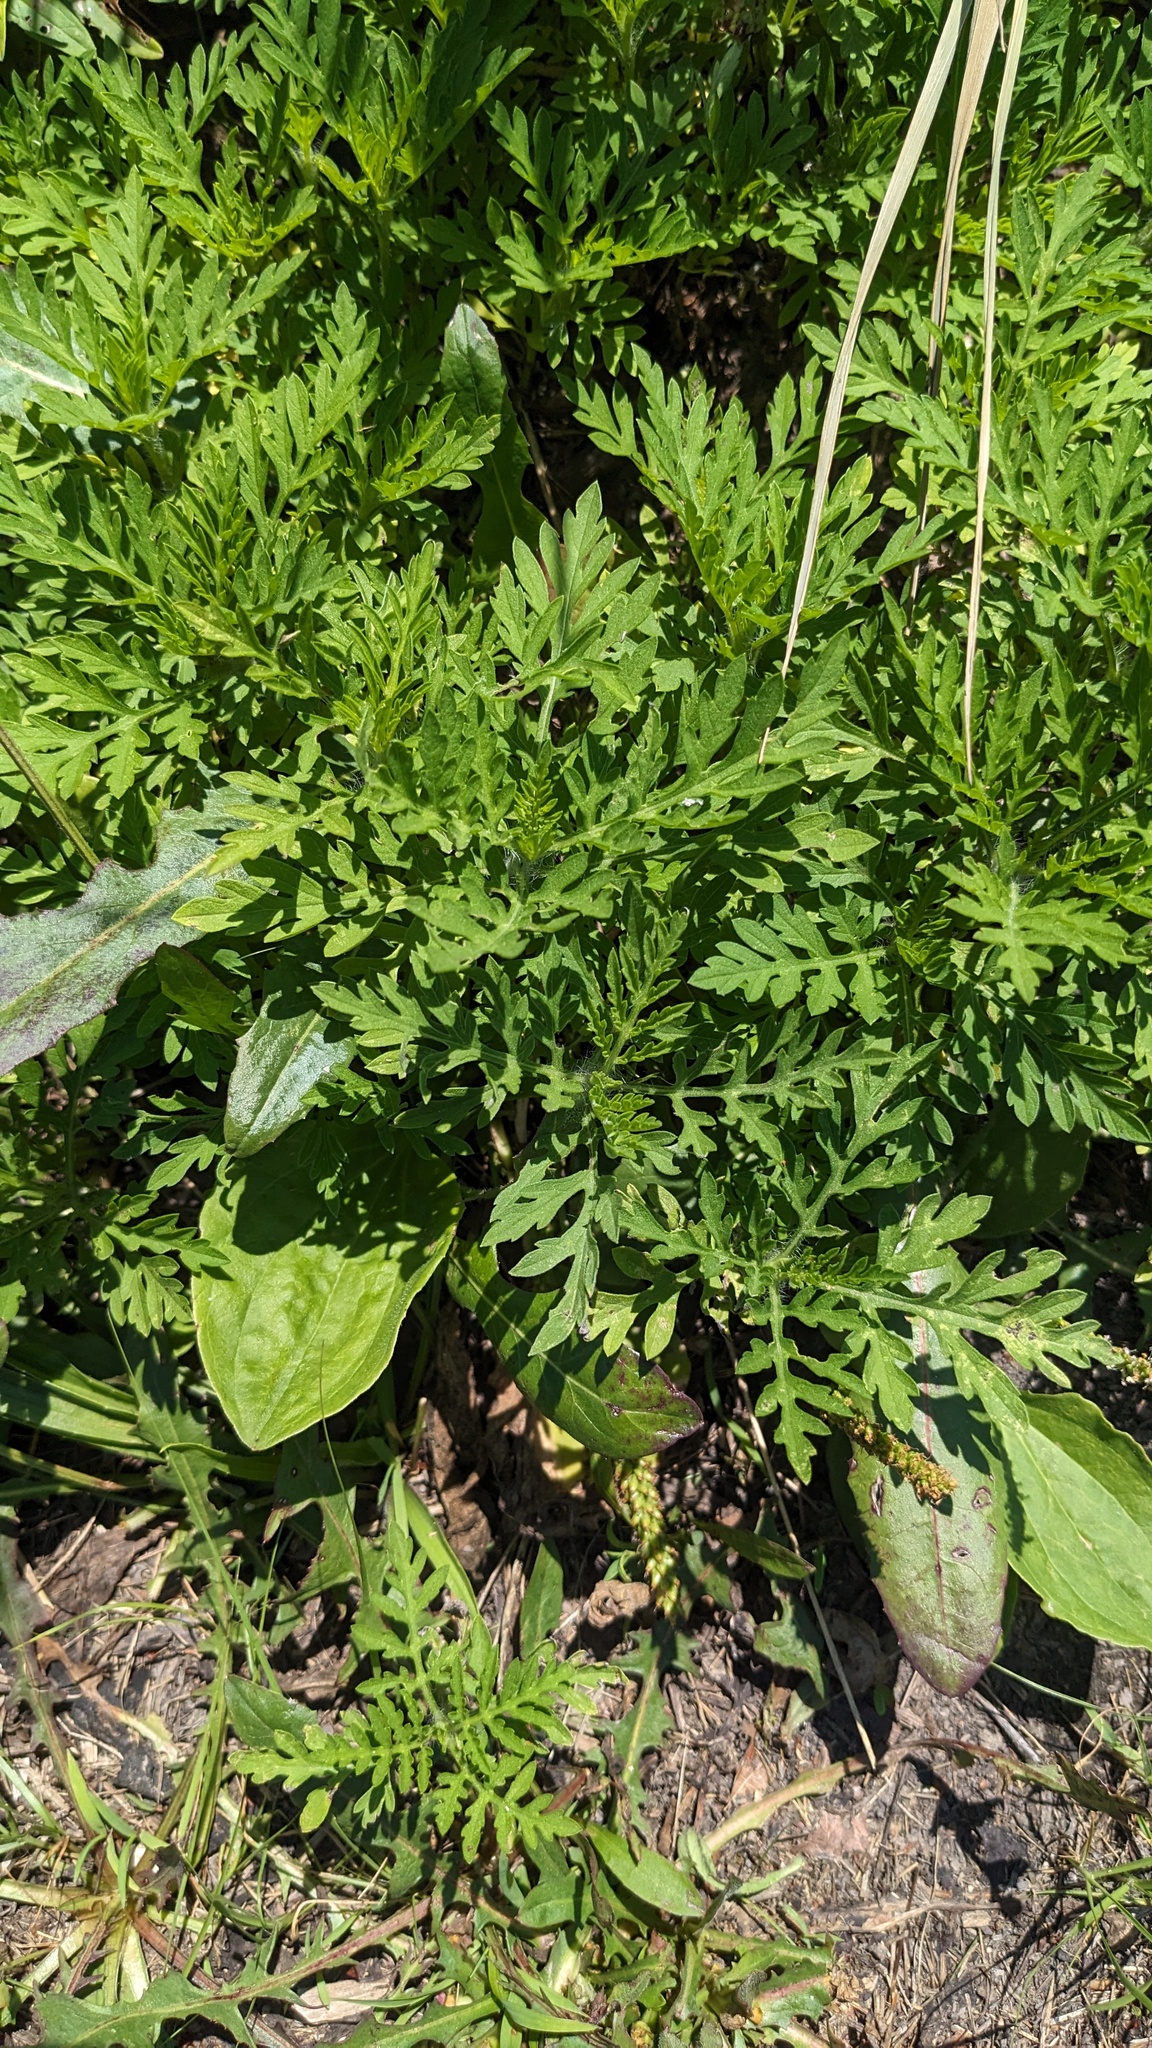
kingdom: Plantae
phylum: Tracheophyta
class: Magnoliopsida
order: Asterales
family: Asteraceae
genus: Ambrosia
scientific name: Ambrosia artemisiifolia
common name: Annual ragweed
